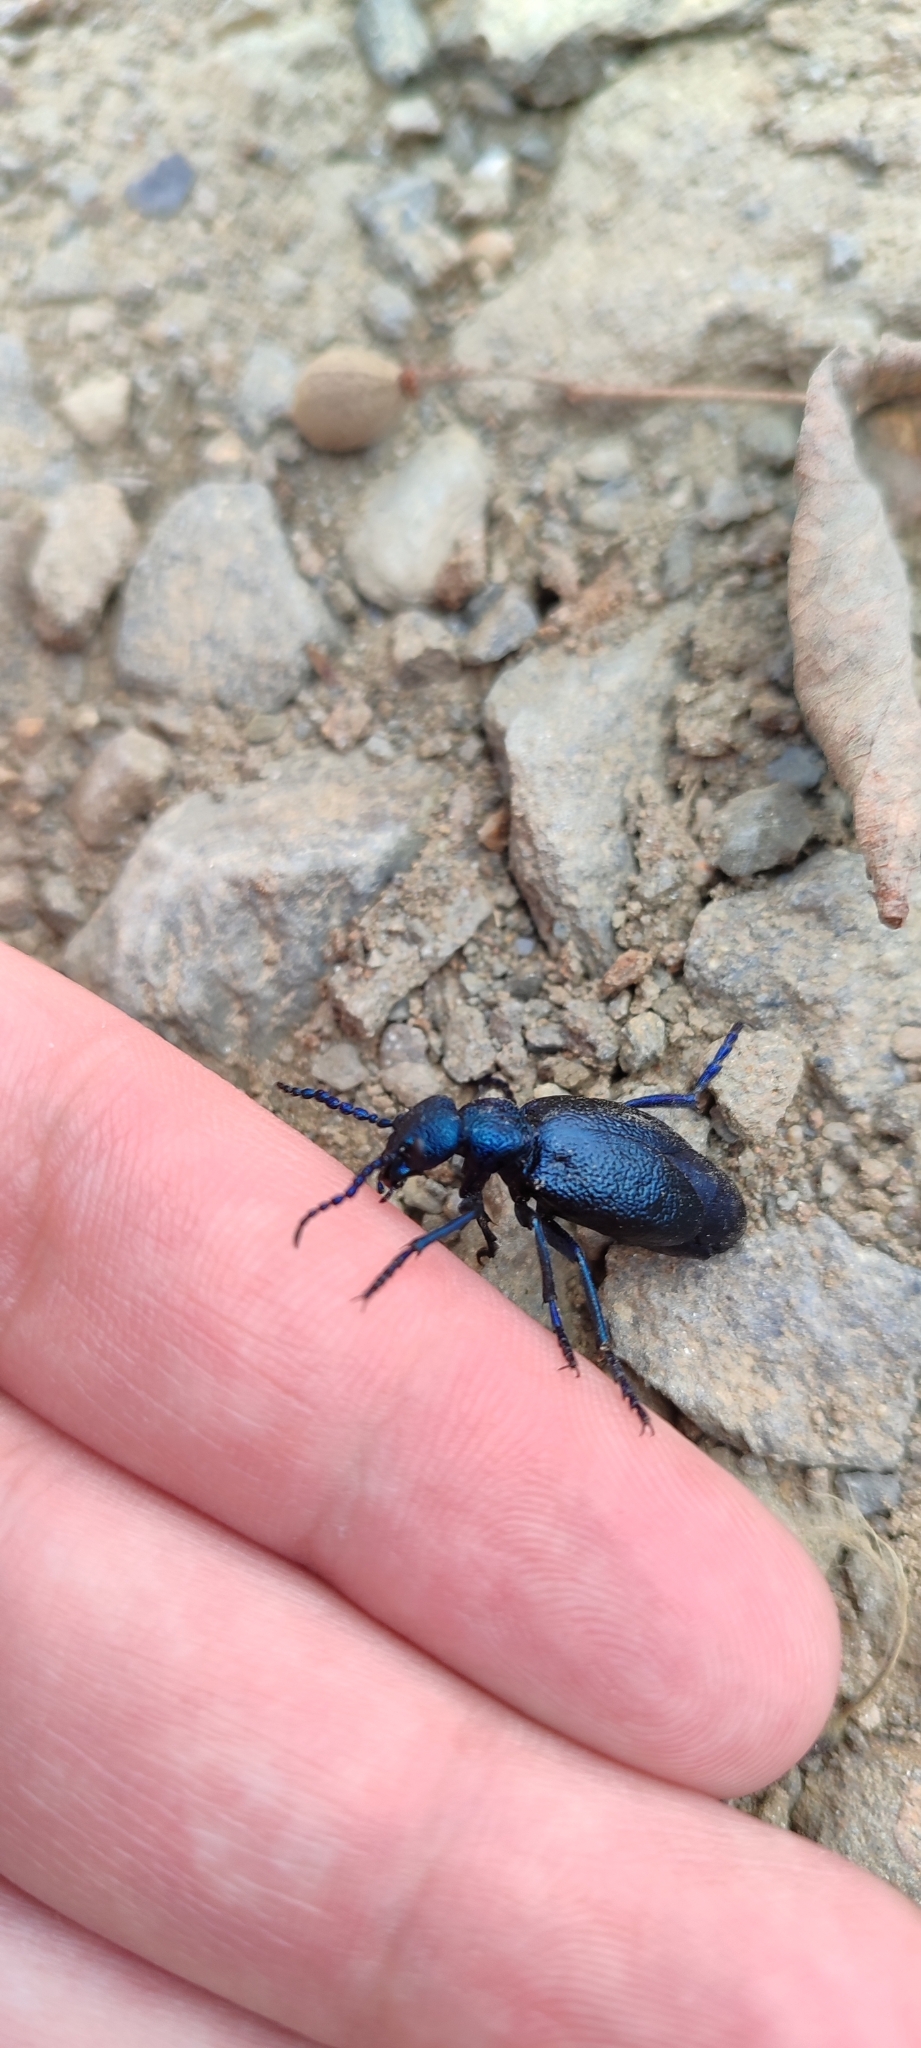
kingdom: Animalia
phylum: Arthropoda
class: Insecta
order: Coleoptera
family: Meloidae
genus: Meloe
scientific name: Meloe proscarabaeus
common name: Black oil-beetle
